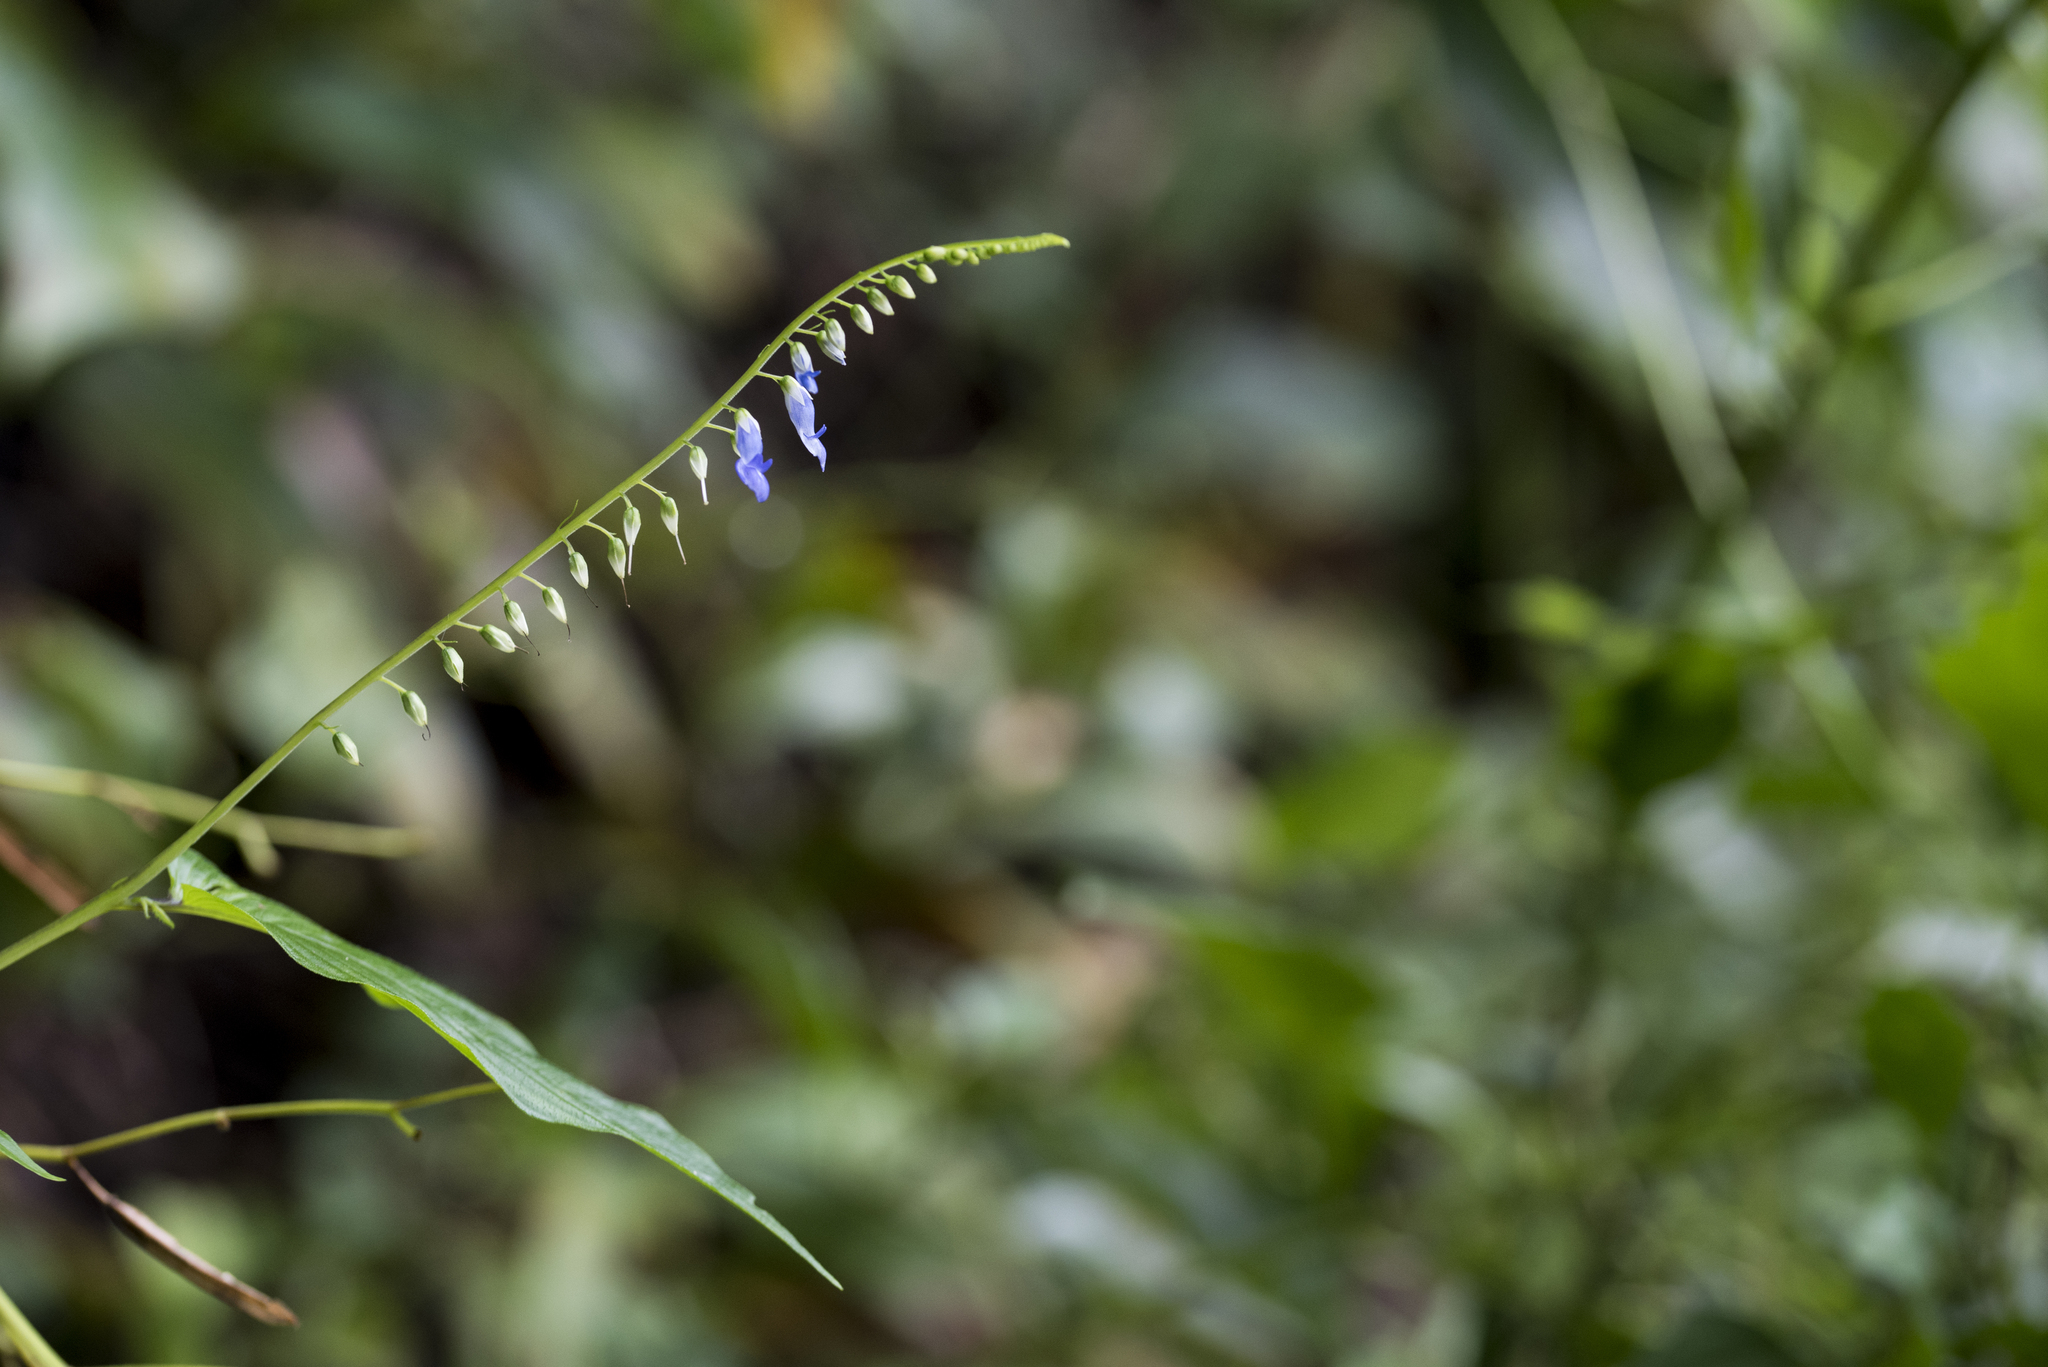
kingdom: Plantae
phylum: Tracheophyta
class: Magnoliopsida
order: Lamiales
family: Gesneriaceae
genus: Rhynchoglossum
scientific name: Rhynchoglossum obliquum
